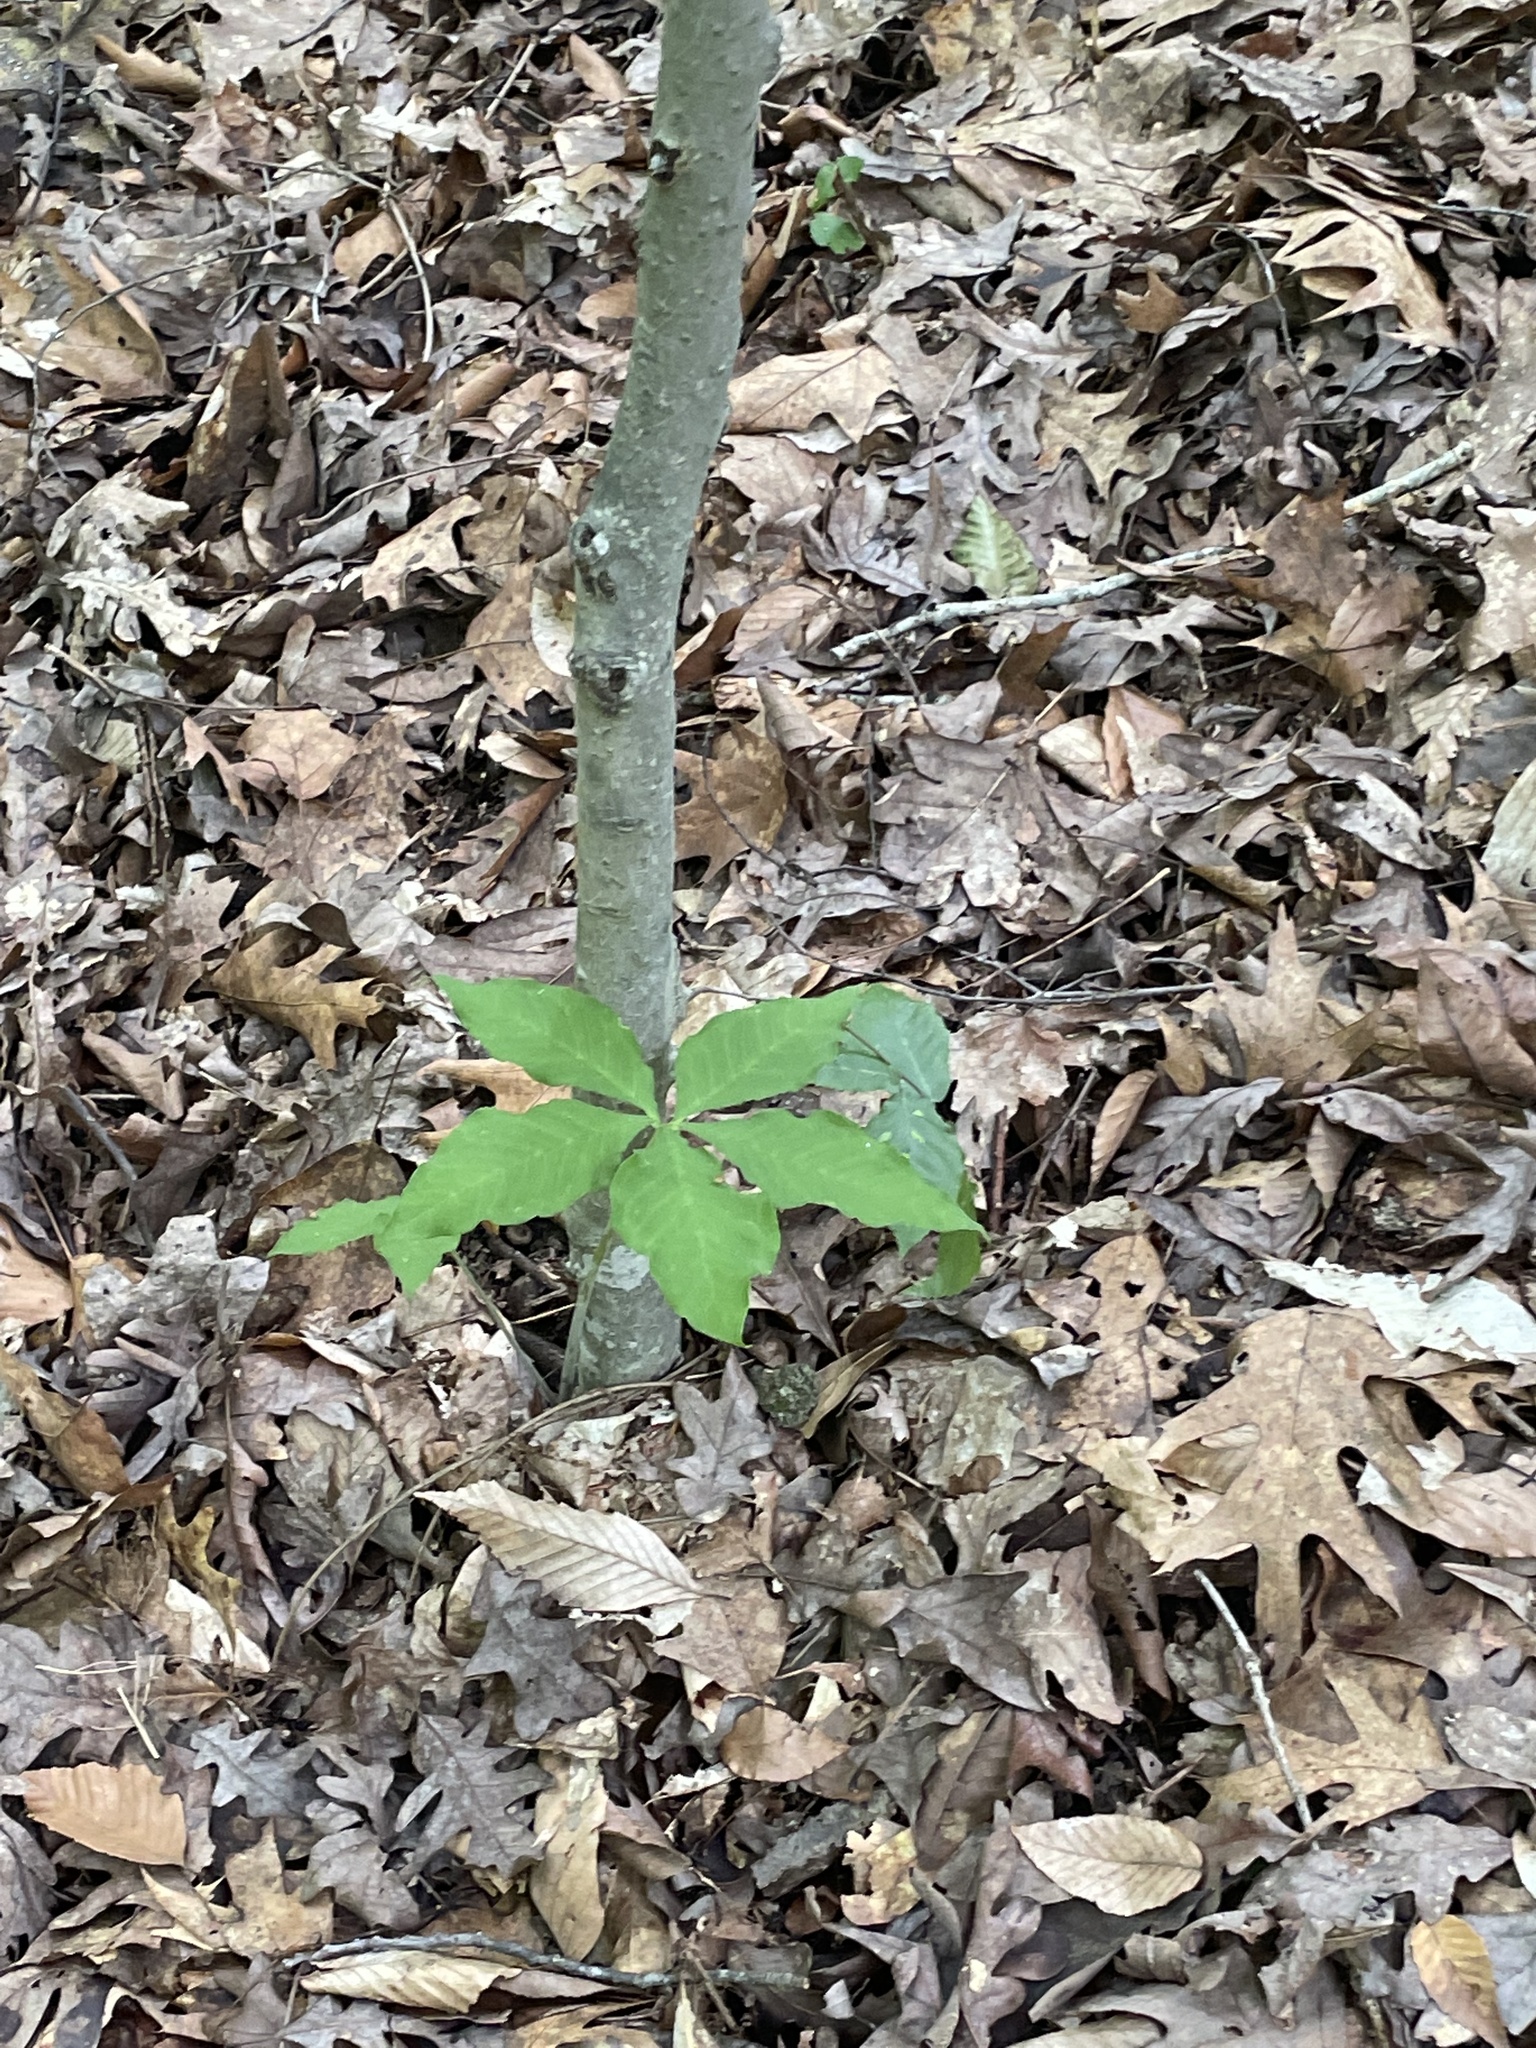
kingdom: Plantae
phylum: Tracheophyta
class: Liliopsida
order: Alismatales
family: Araceae
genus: Arisaema
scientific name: Arisaema quinatum
